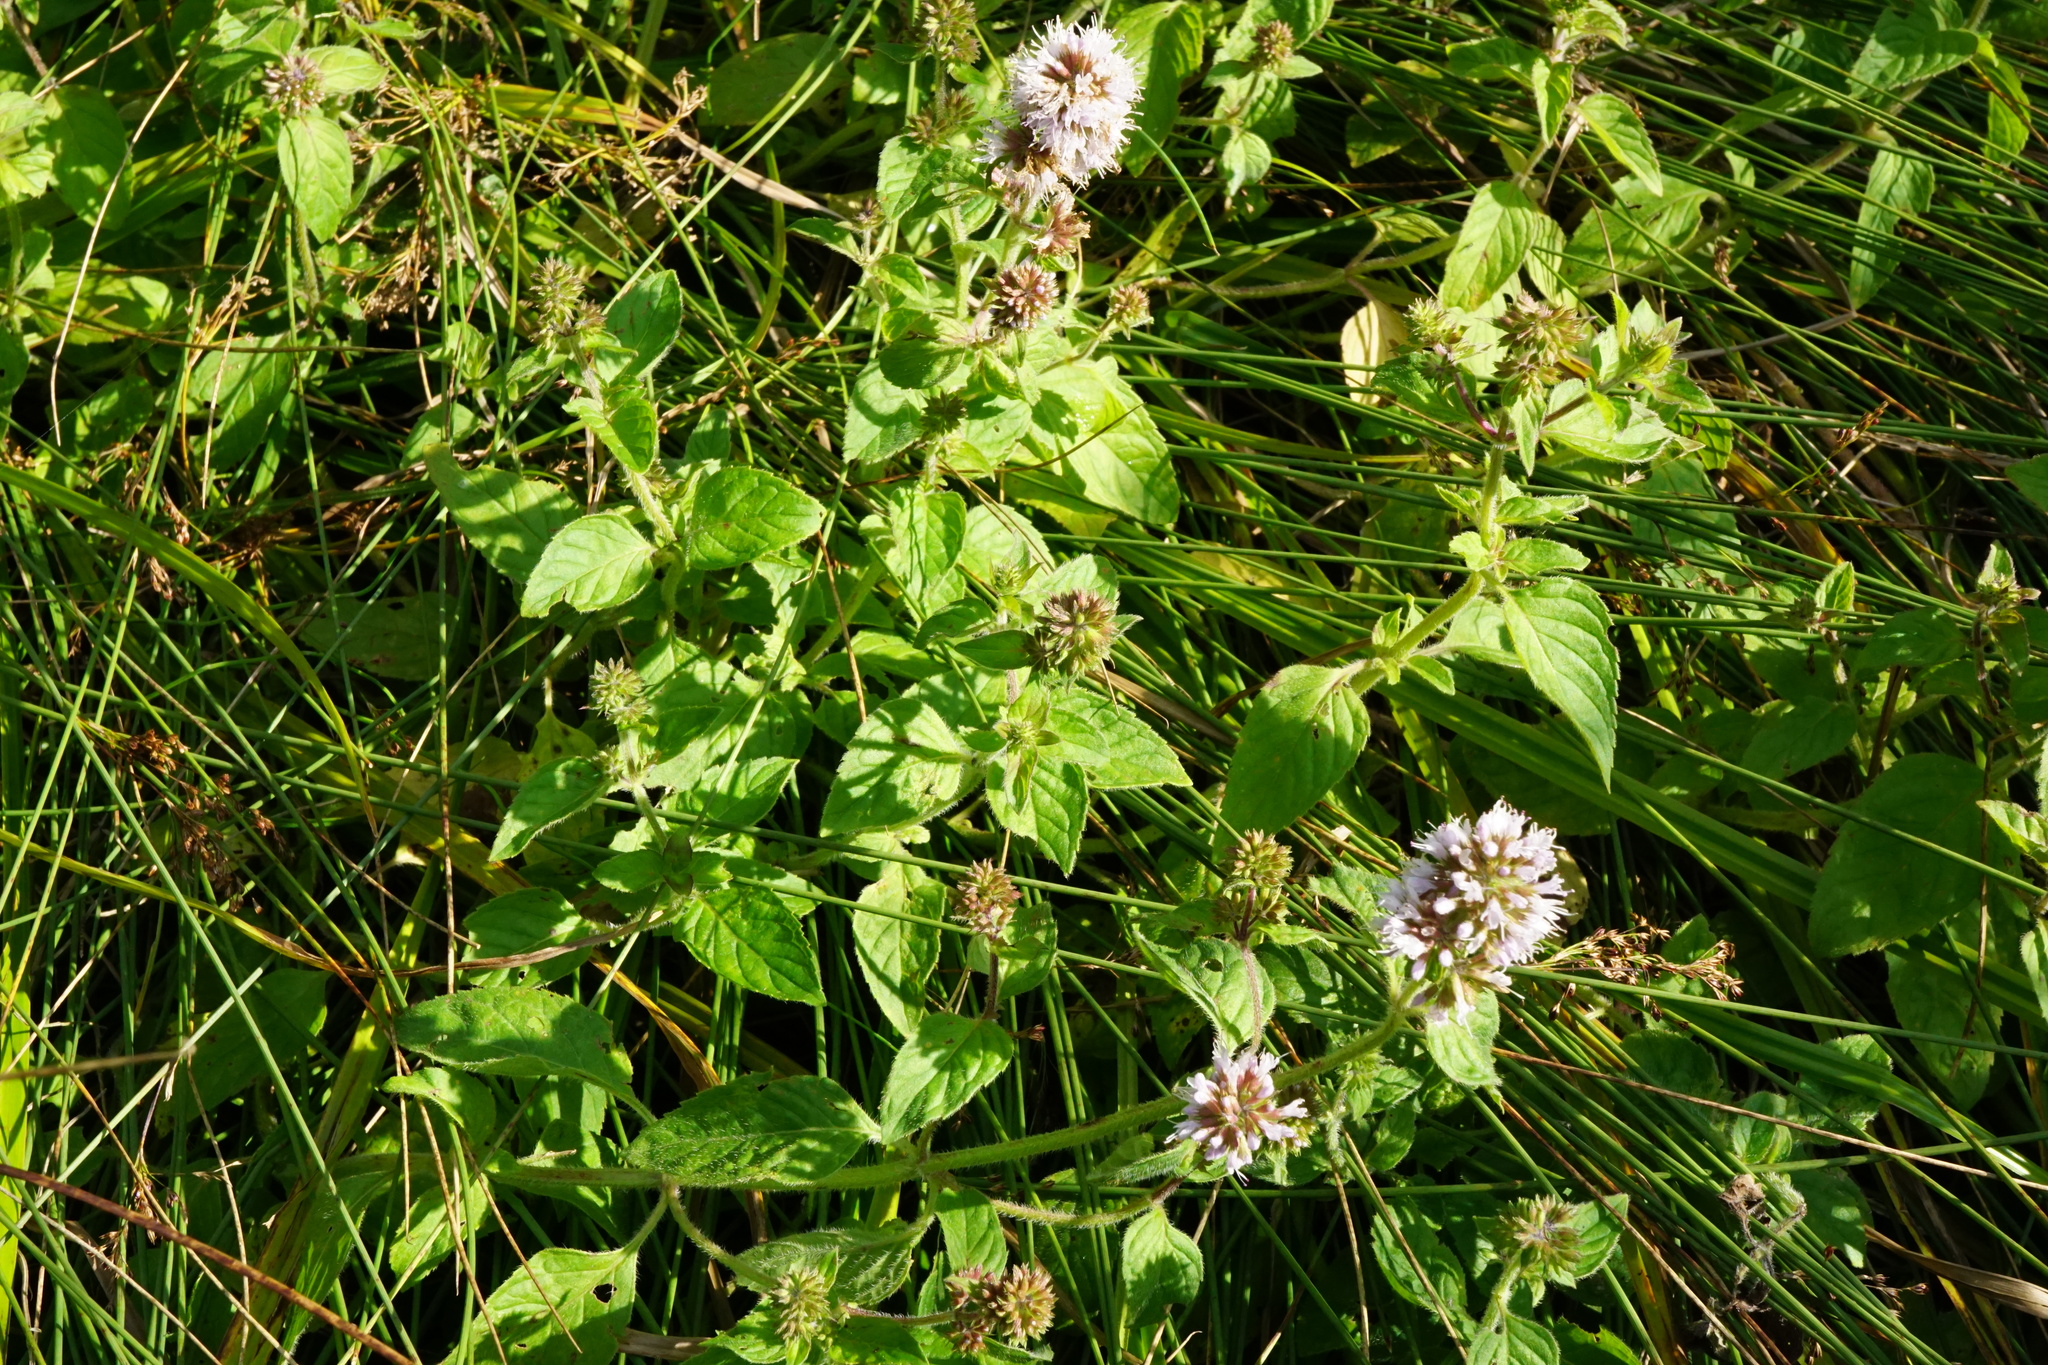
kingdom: Plantae
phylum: Tracheophyta
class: Magnoliopsida
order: Lamiales
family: Lamiaceae
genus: Mentha
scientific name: Mentha aquatica
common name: Water mint
